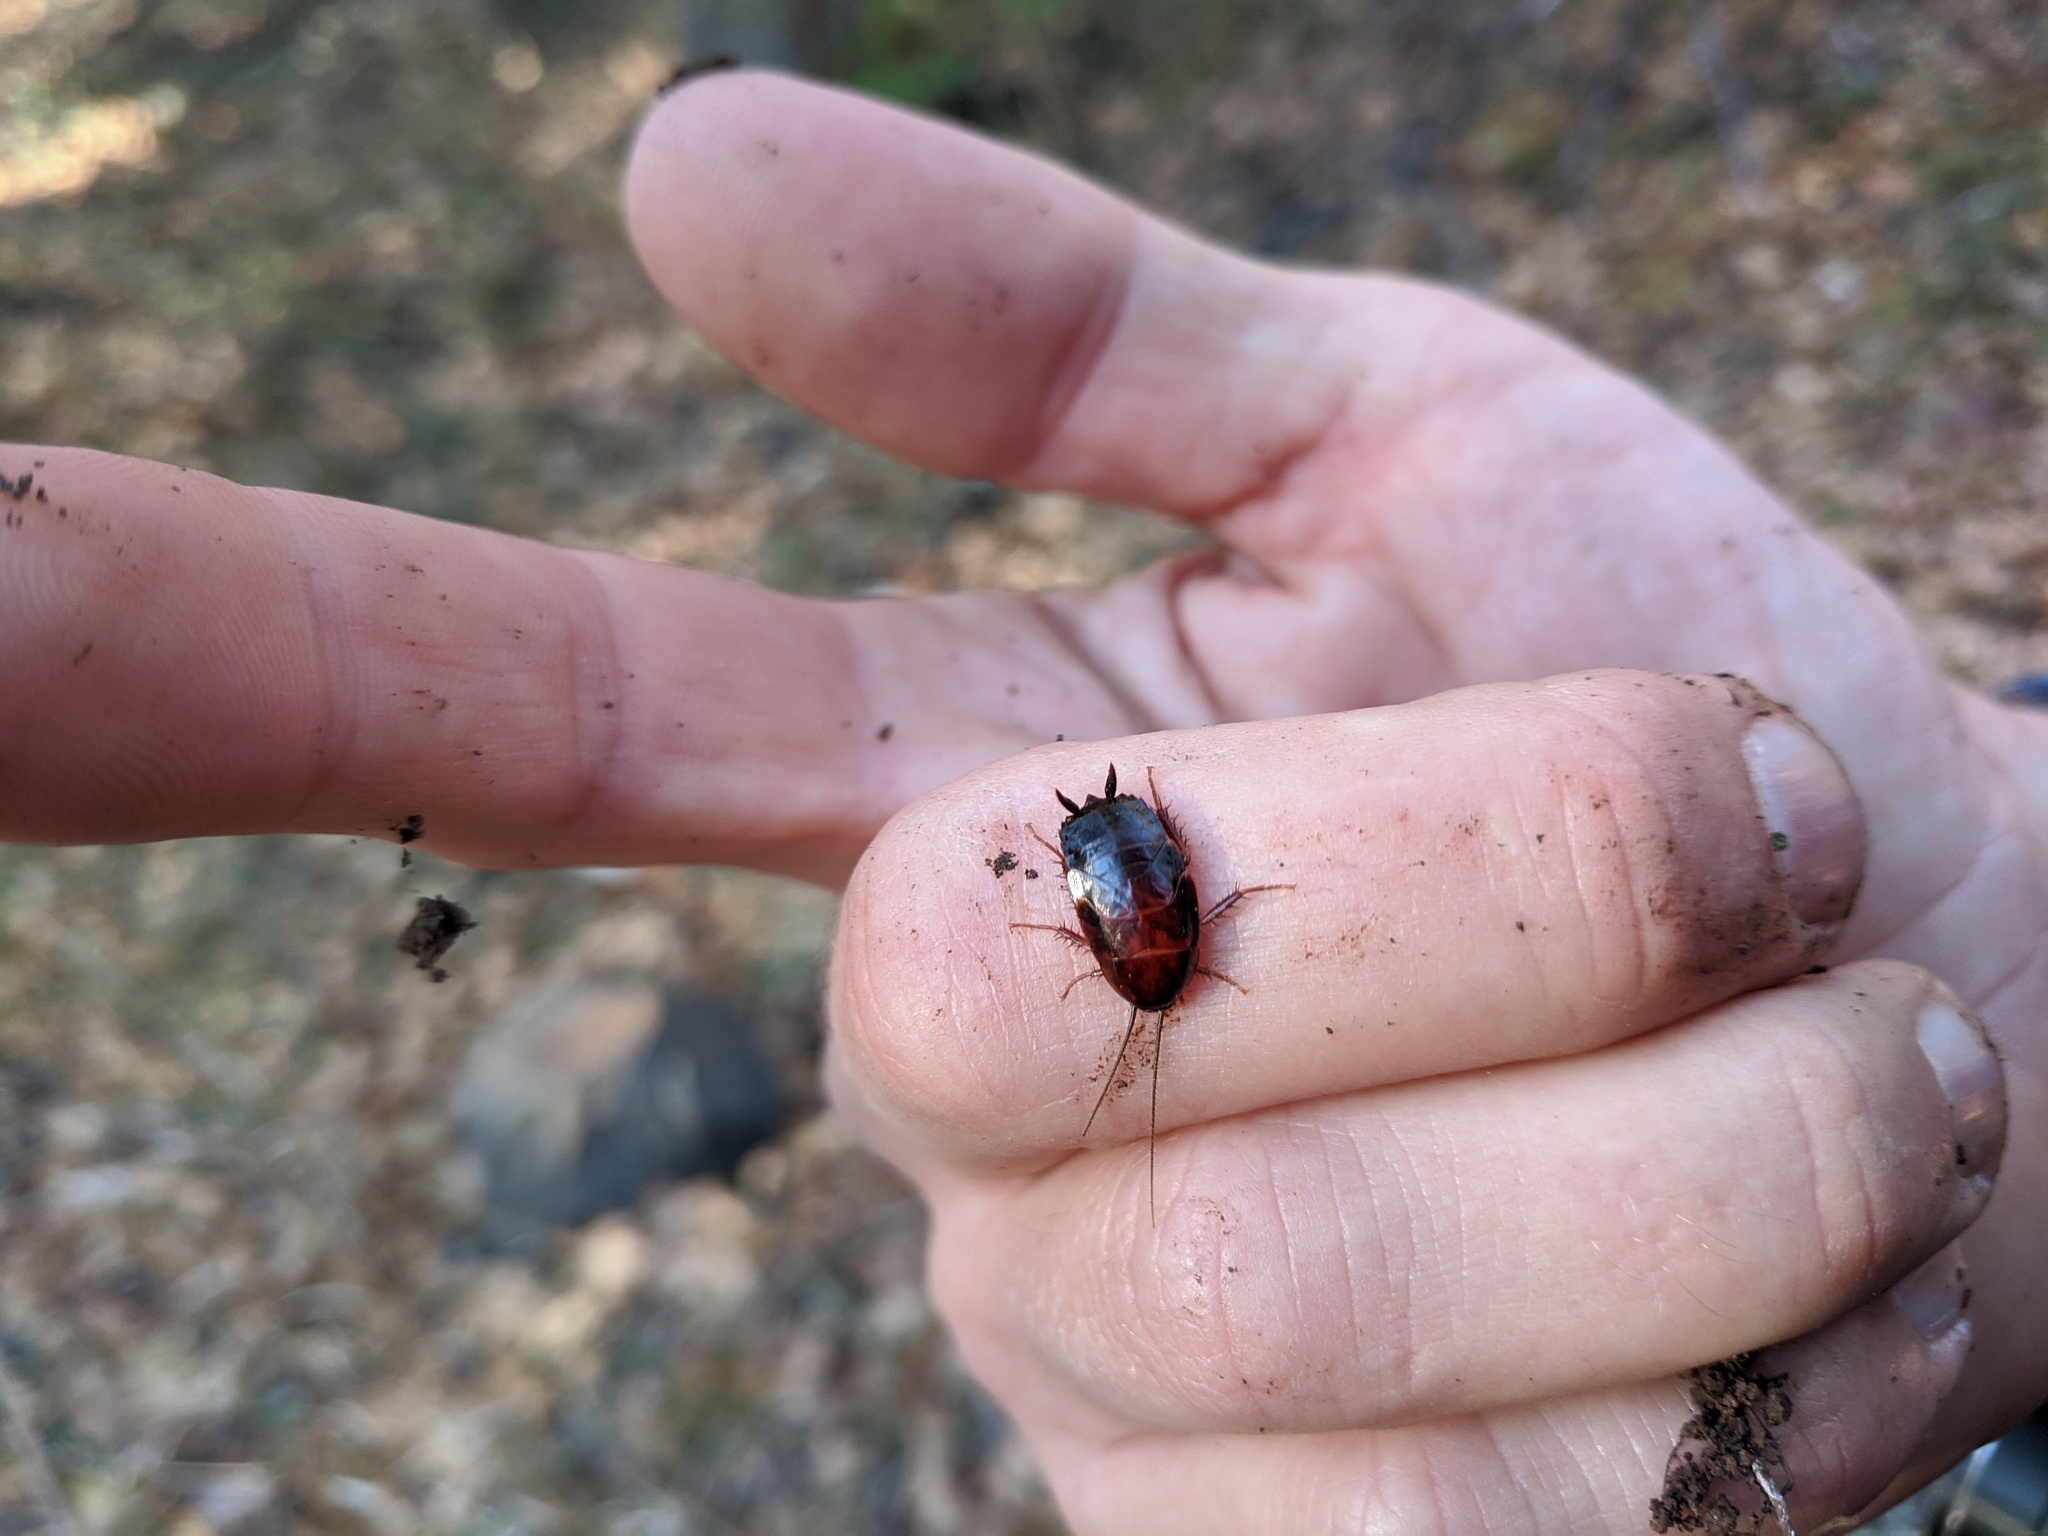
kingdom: Animalia
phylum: Arthropoda
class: Insecta
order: Blattodea
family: Ectobiidae
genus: Parcoblatta
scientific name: Parcoblatta americana
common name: Western wood cockroach
